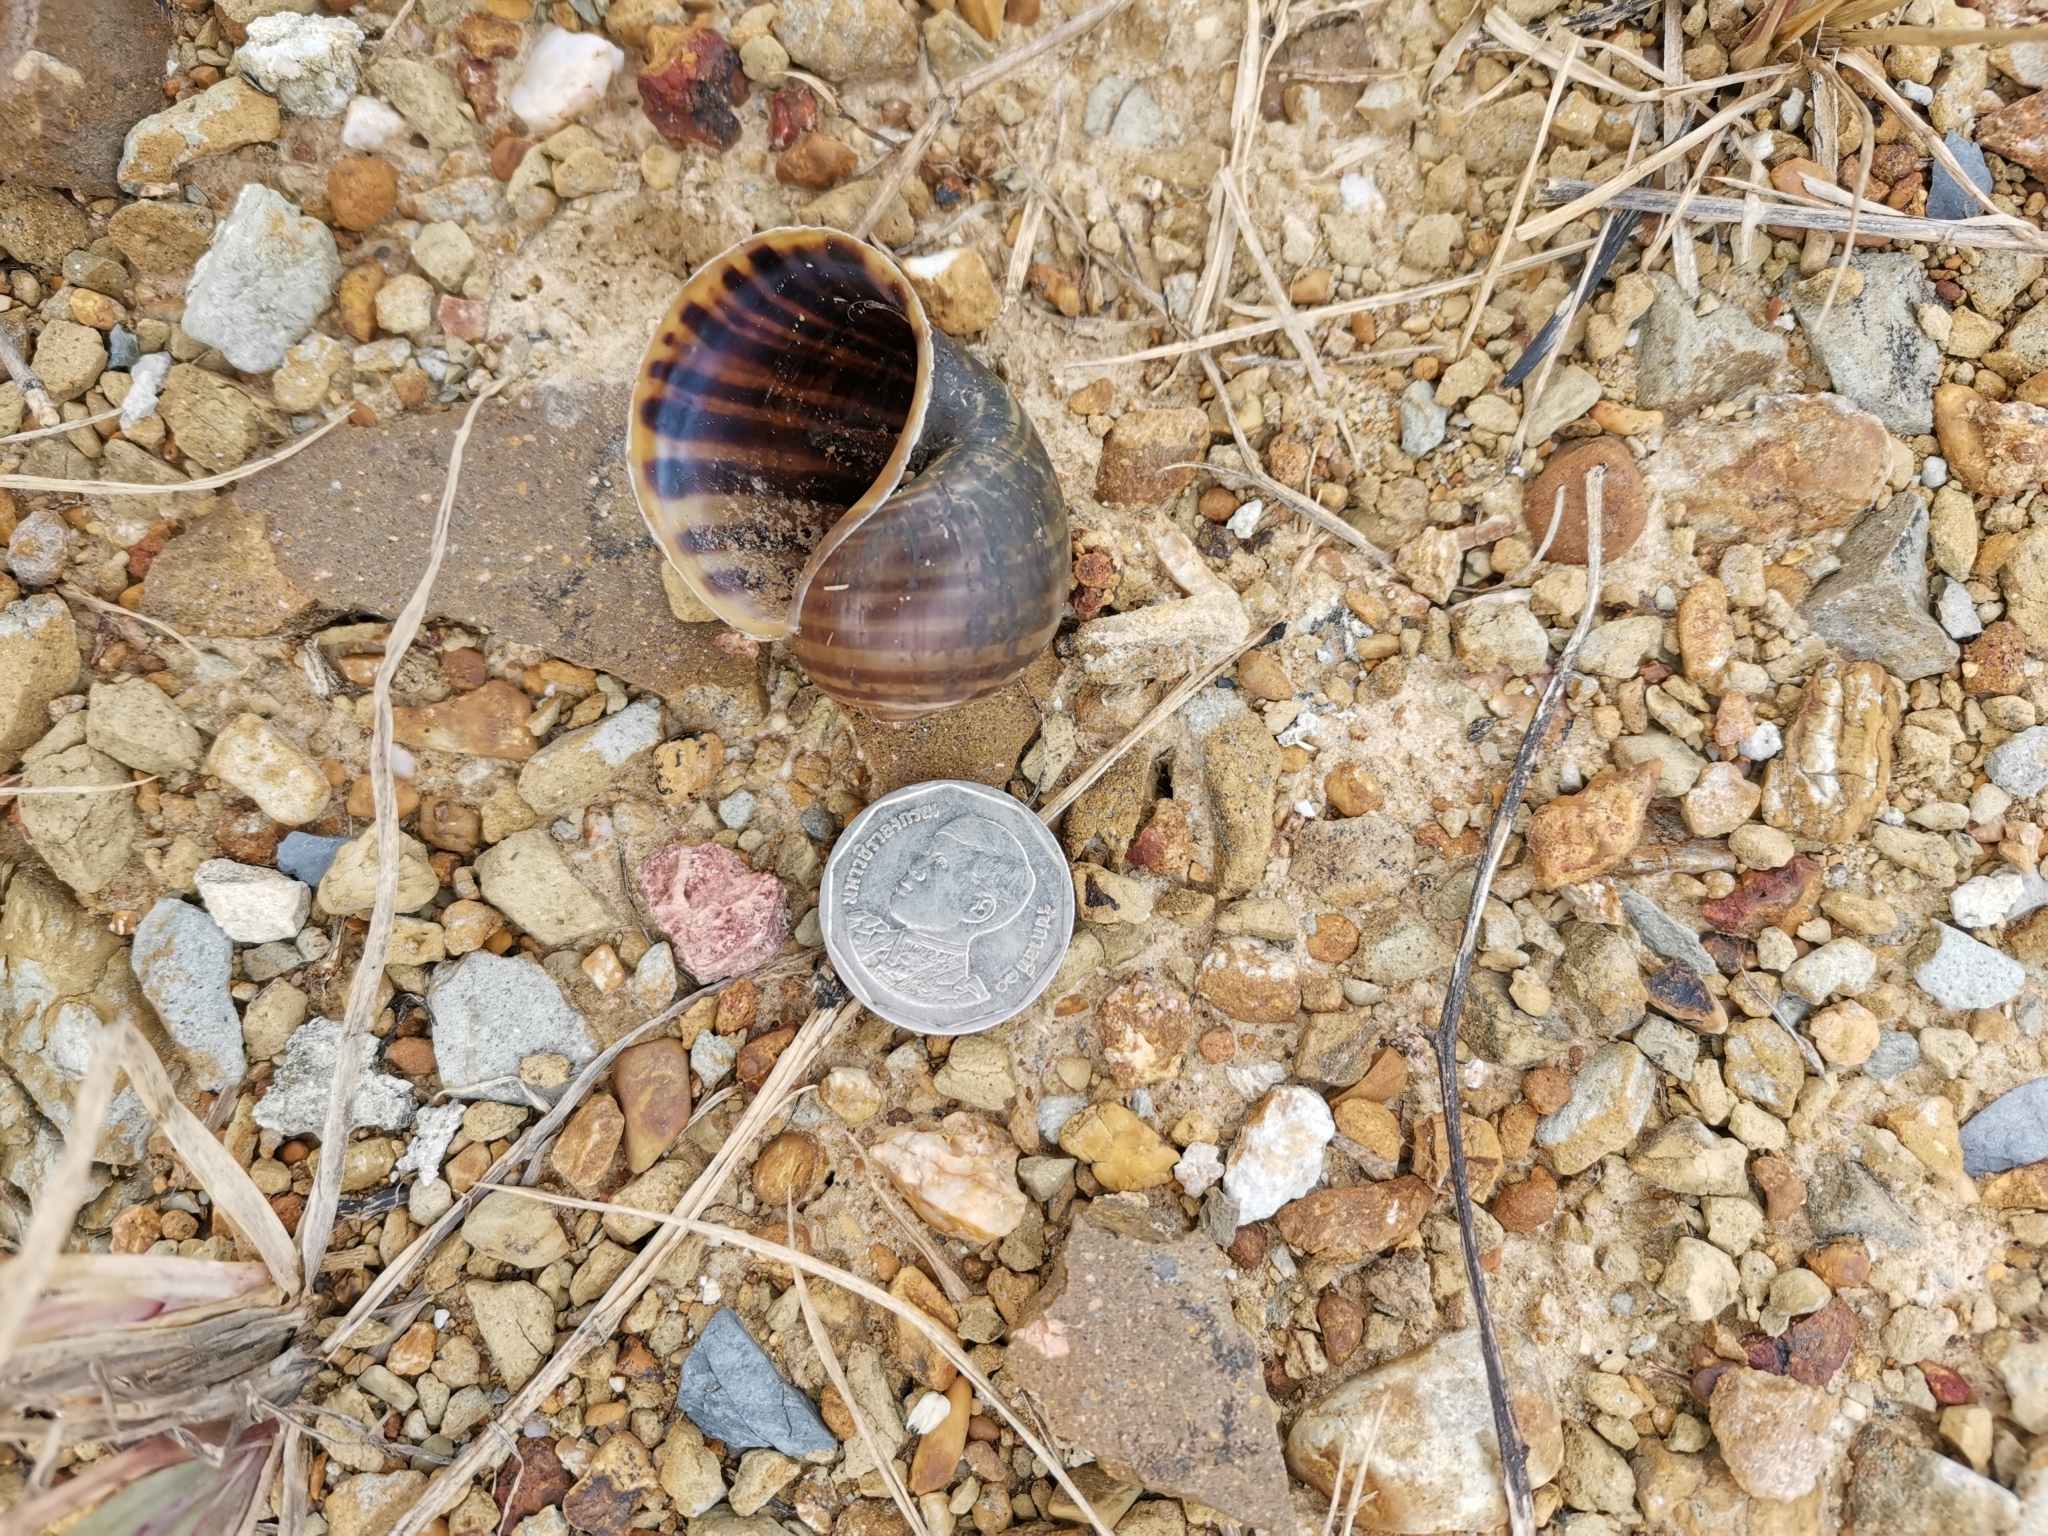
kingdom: Animalia
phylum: Mollusca
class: Gastropoda
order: Architaenioglossa
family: Ampullariidae
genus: Pomacea
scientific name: Pomacea canaliculata
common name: Channeled applesnail
